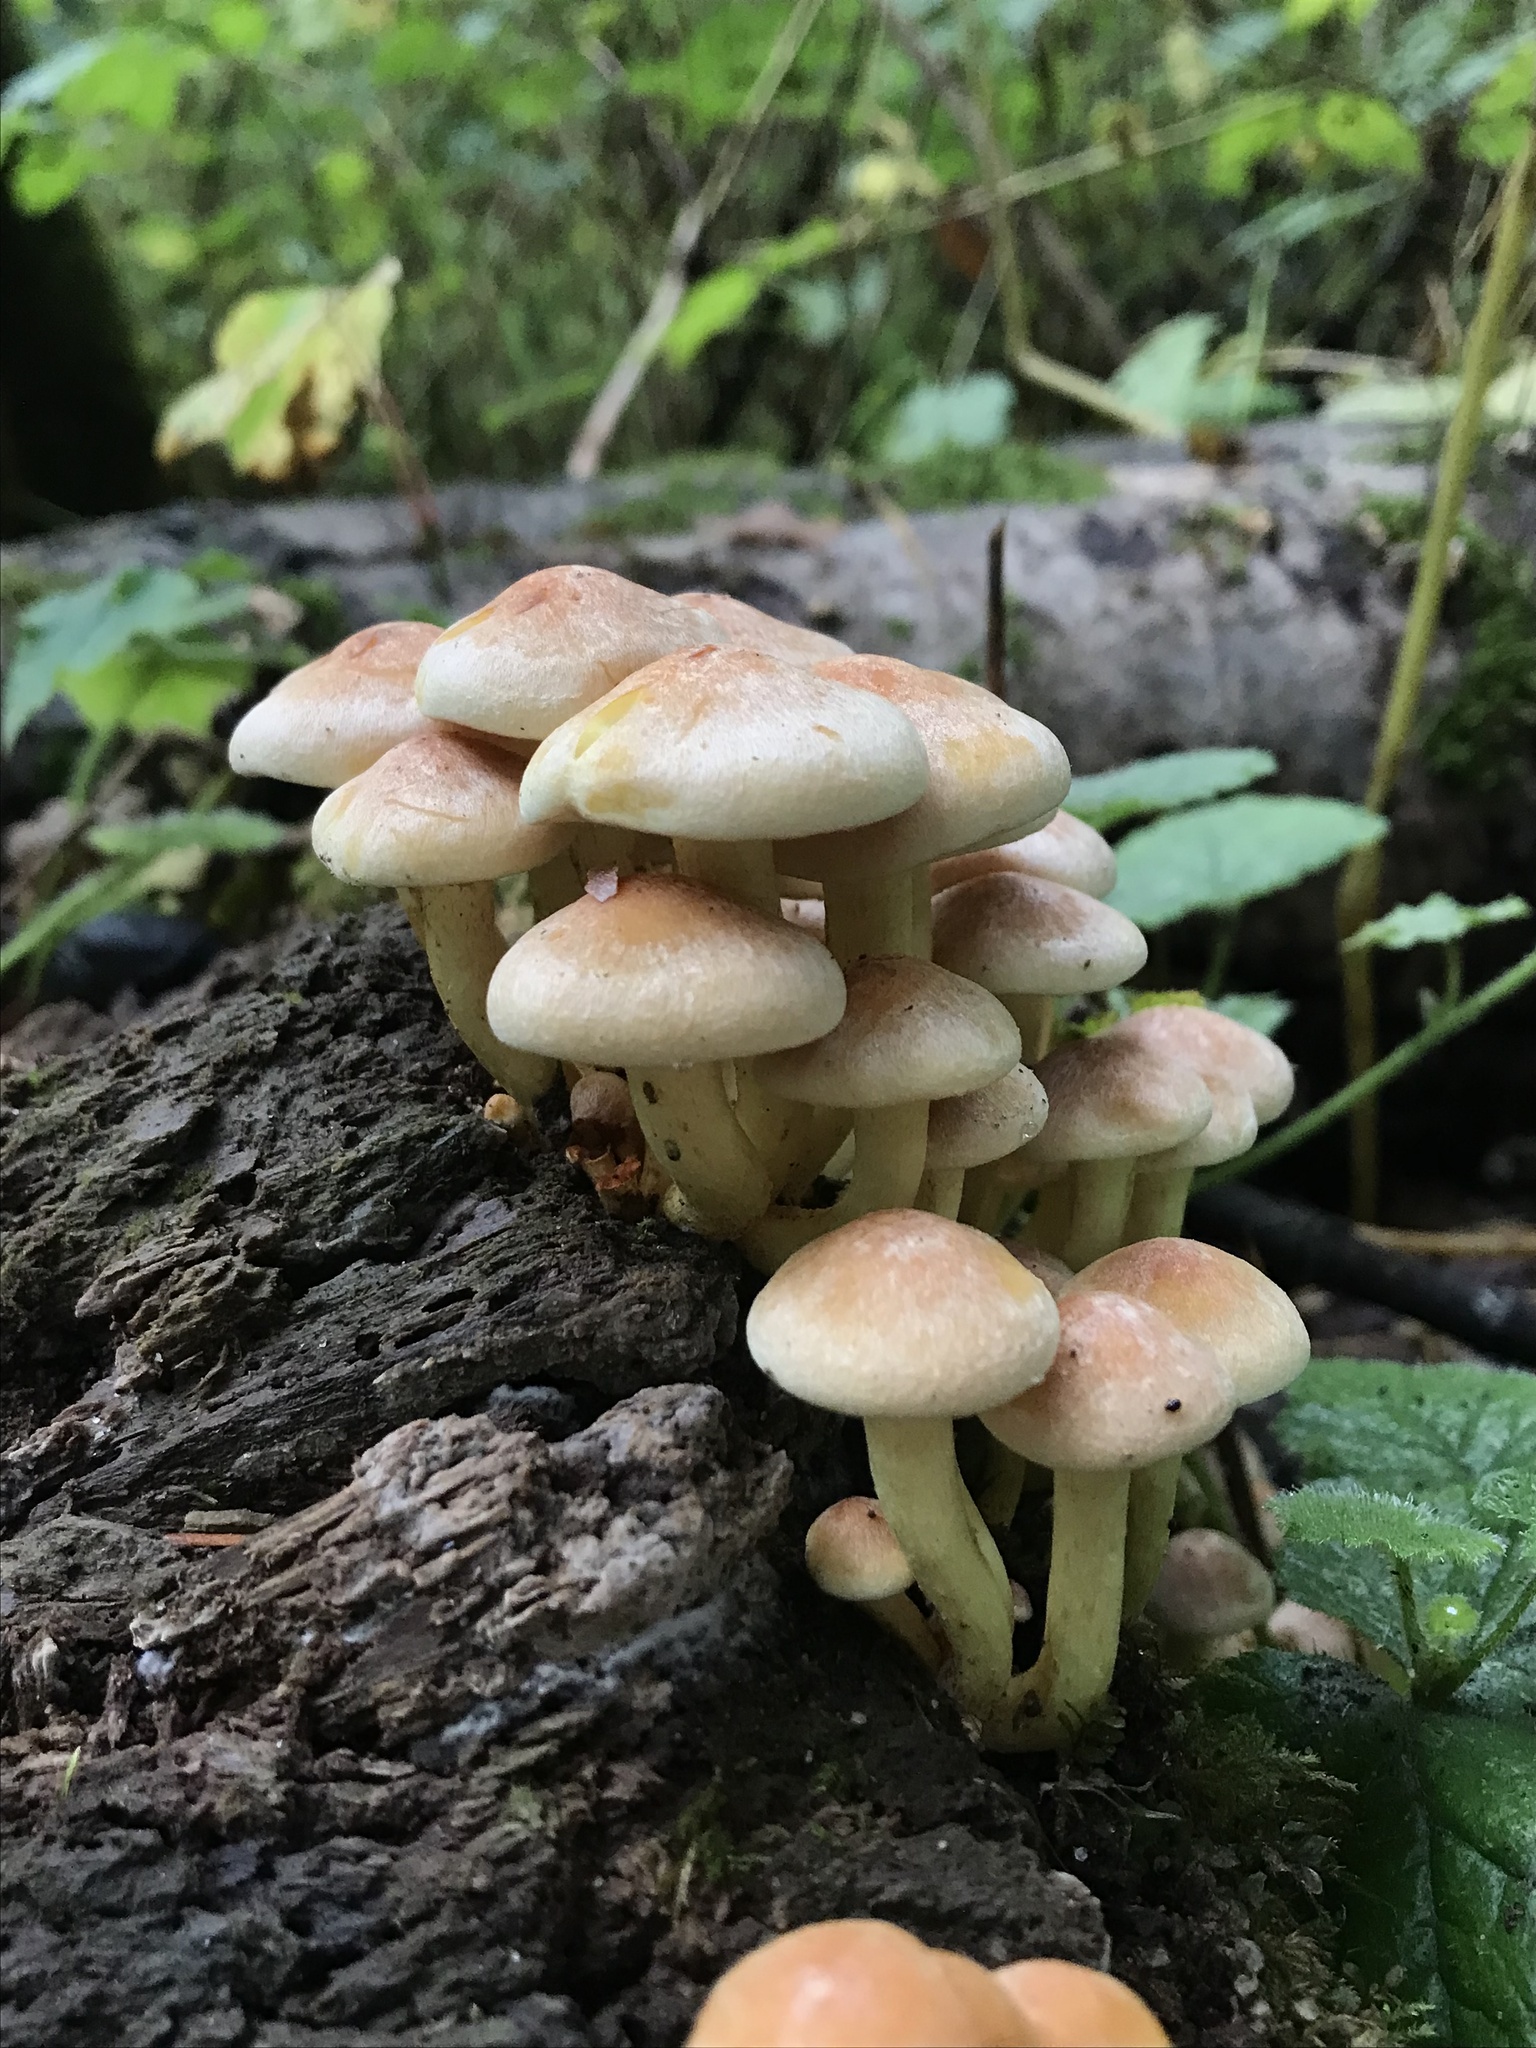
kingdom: Fungi
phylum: Basidiomycota
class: Agaricomycetes
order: Agaricales
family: Strophariaceae
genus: Hypholoma
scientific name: Hypholoma fasciculare
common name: Sulphur tuft
